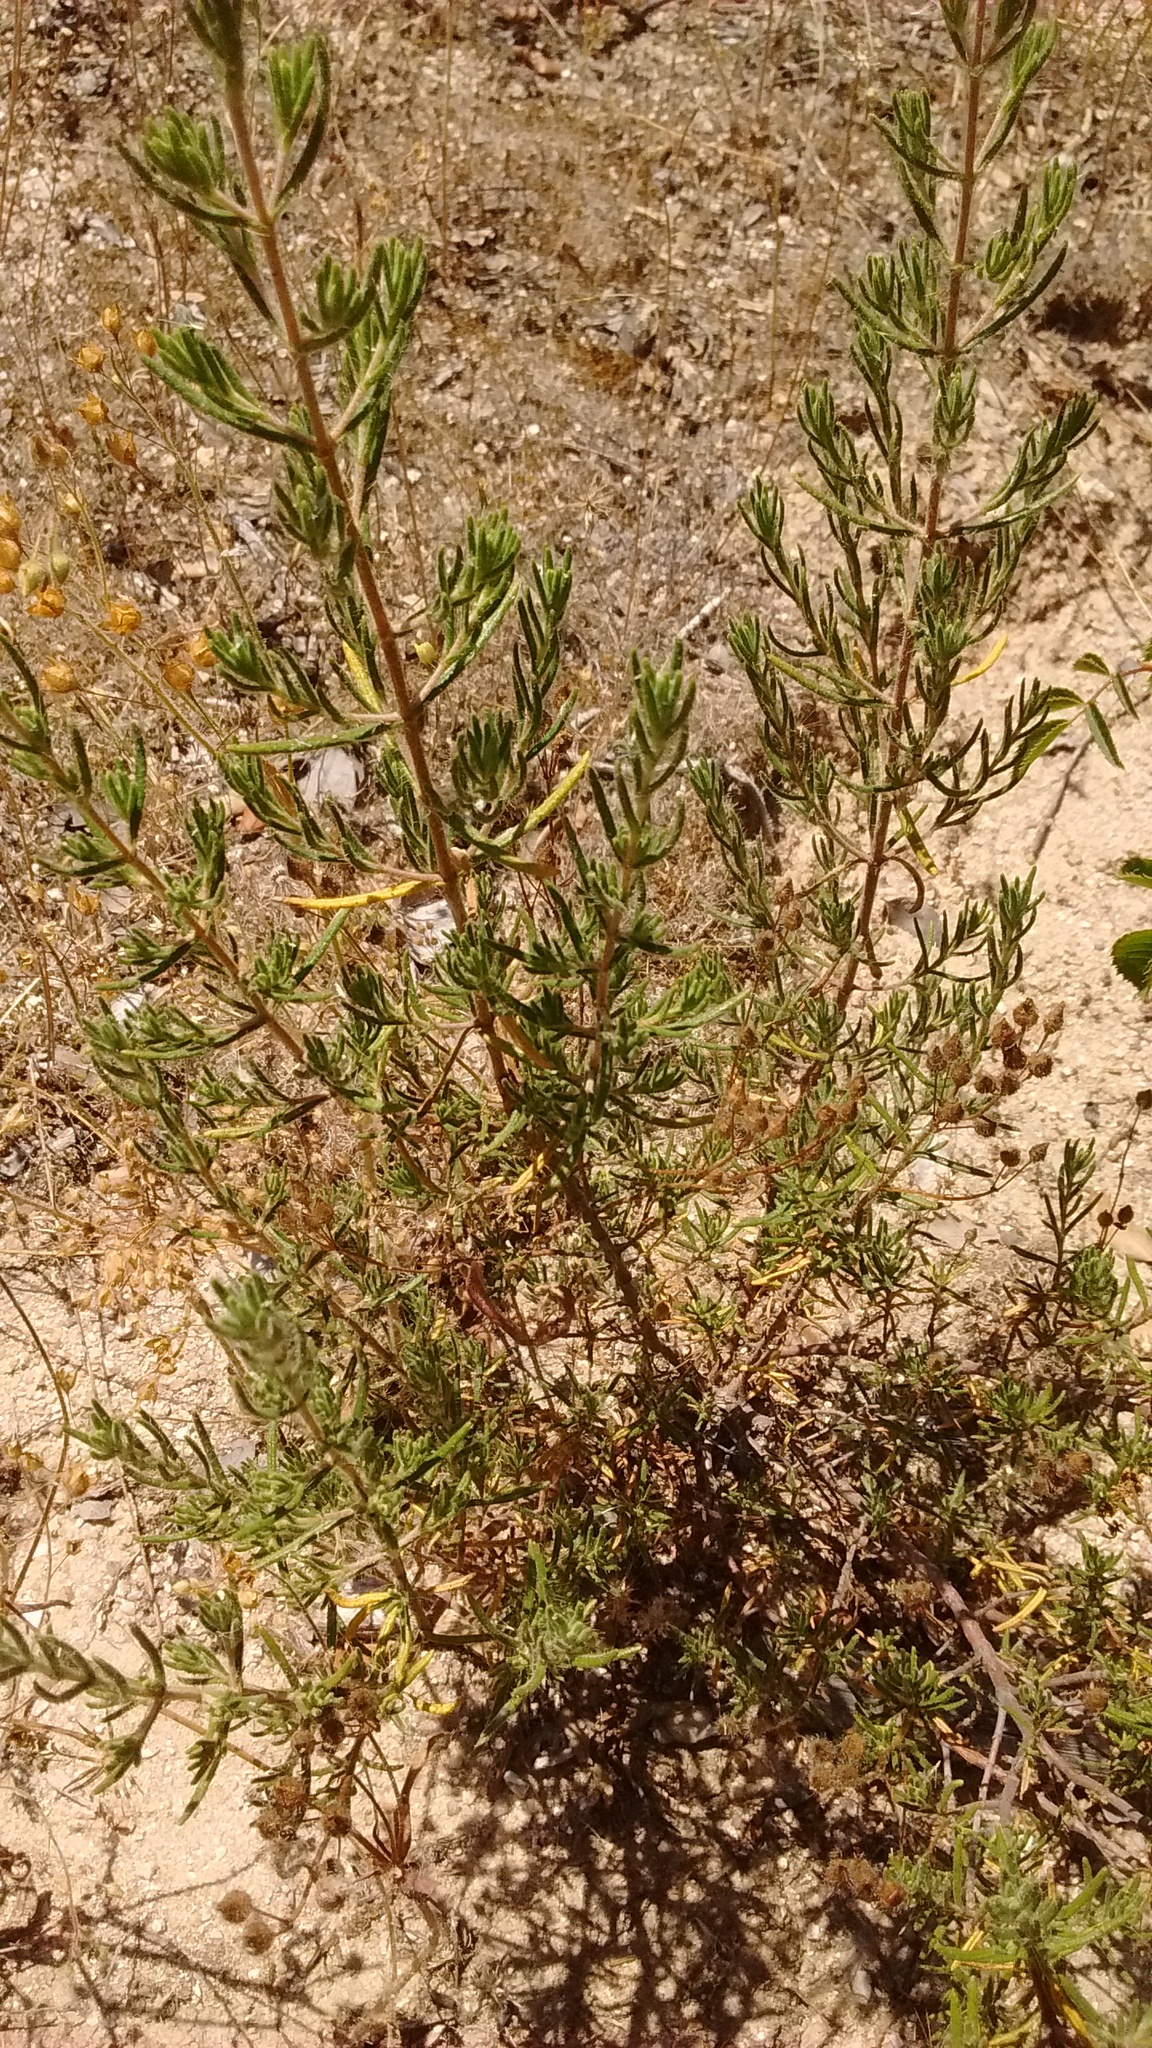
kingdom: Plantae
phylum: Tracheophyta
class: Magnoliopsida
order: Malvales
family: Cistaceae
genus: Halimium
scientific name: Halimium umbellatum
